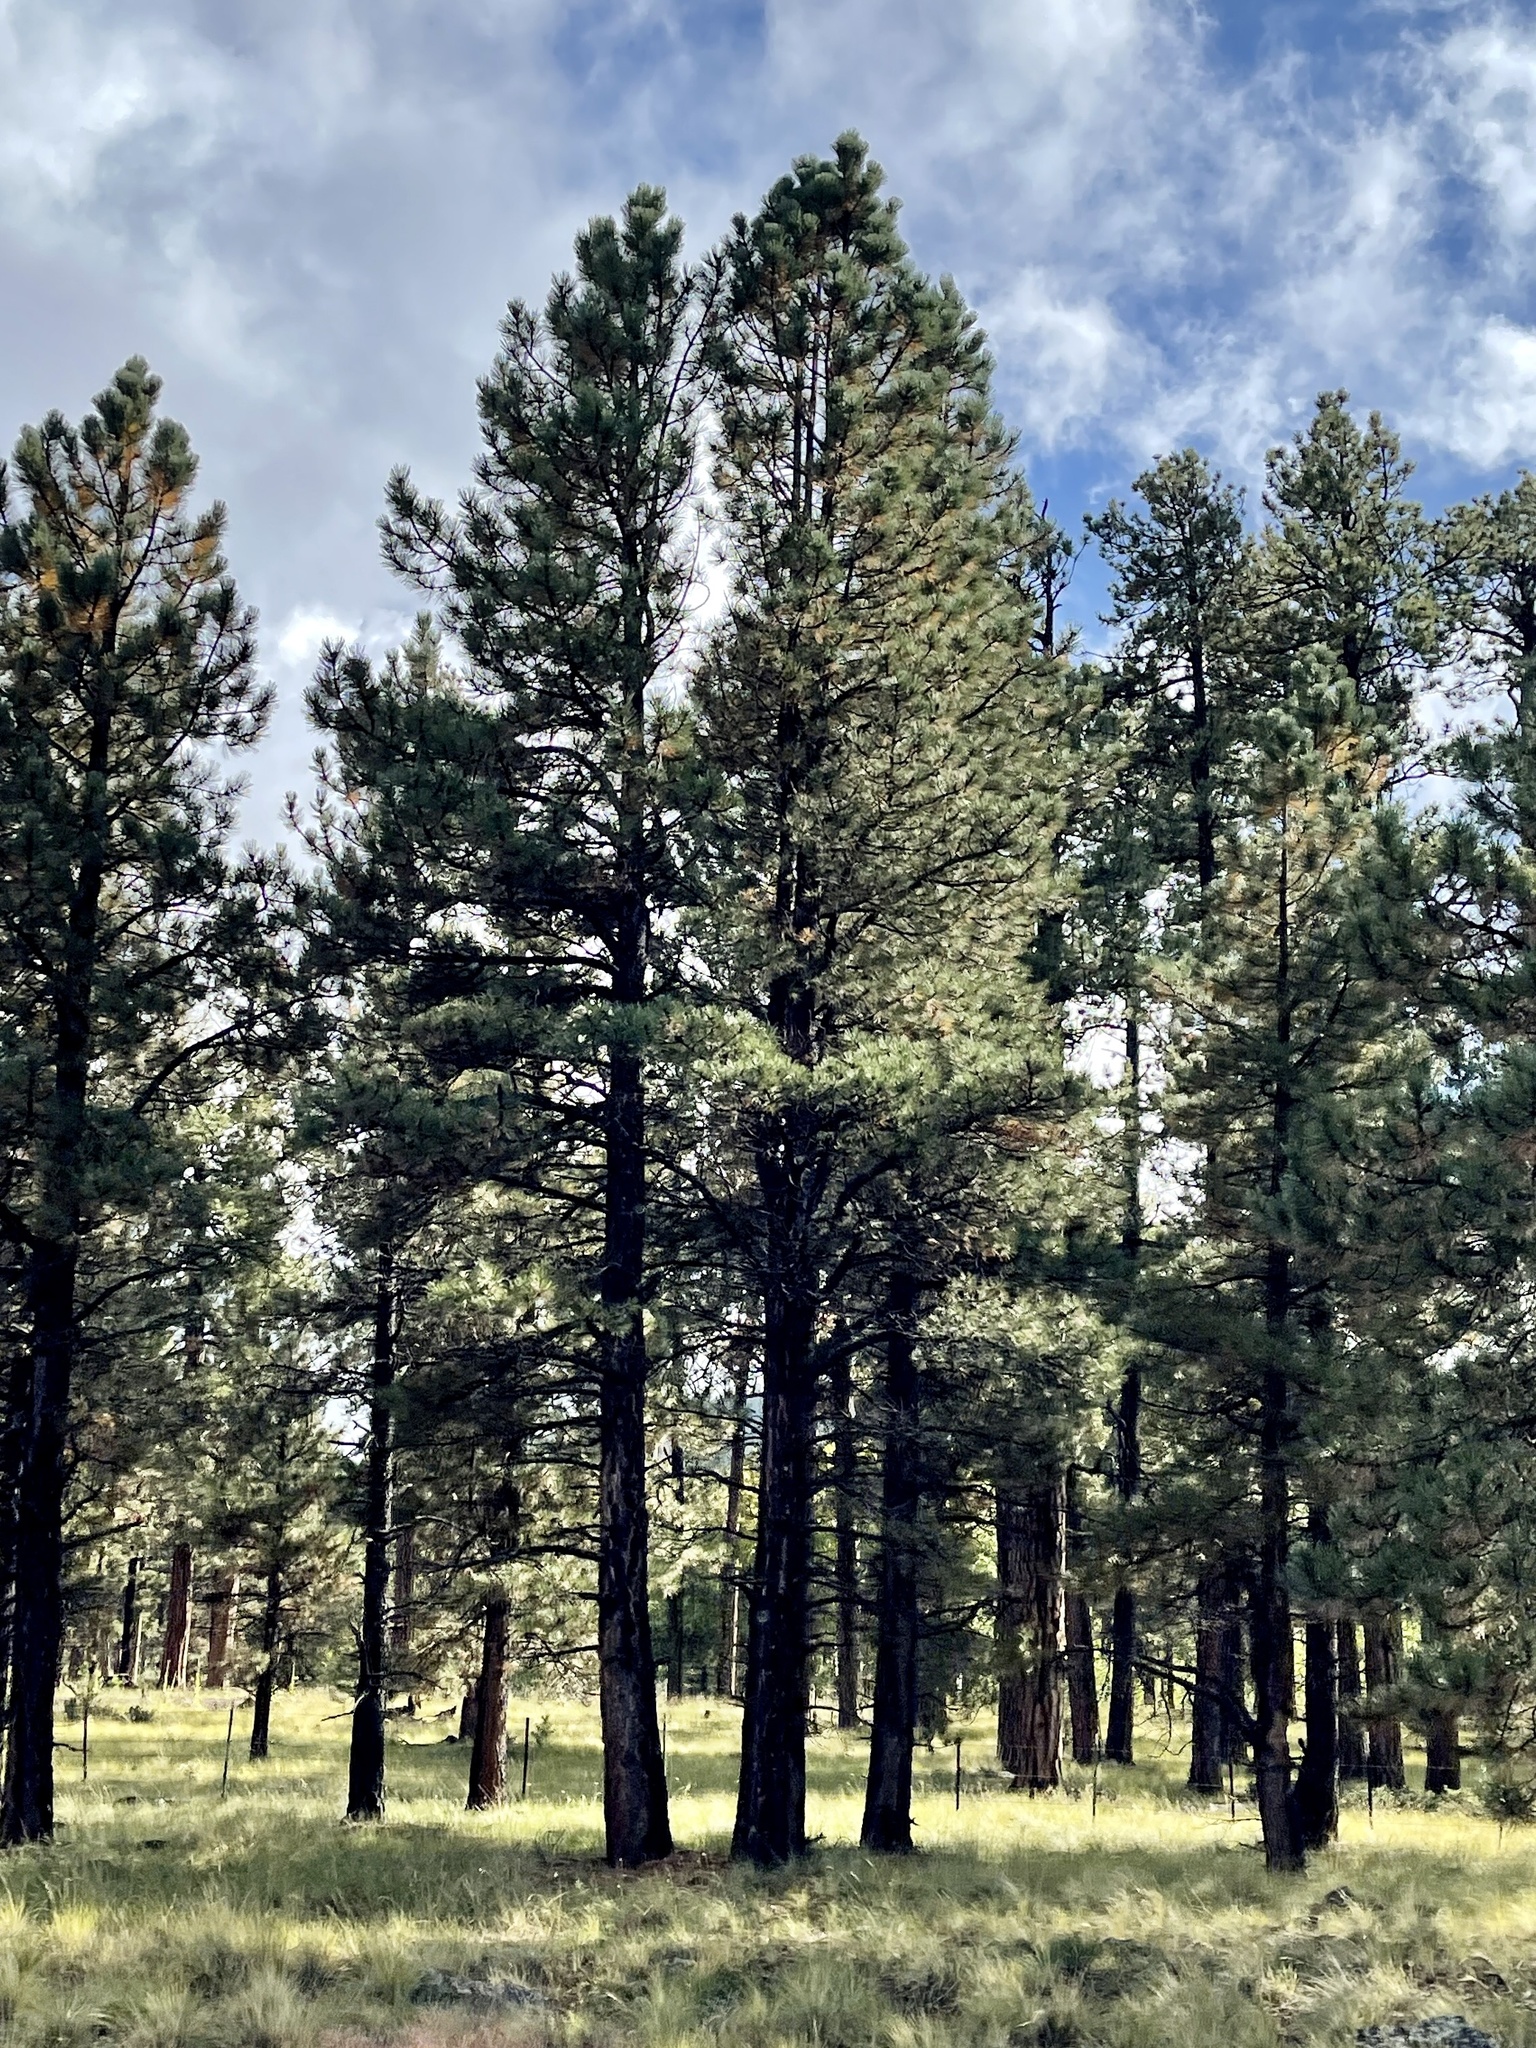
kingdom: Plantae
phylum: Tracheophyta
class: Pinopsida
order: Pinales
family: Pinaceae
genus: Pinus
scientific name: Pinus ponderosa
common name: Western yellow-pine
